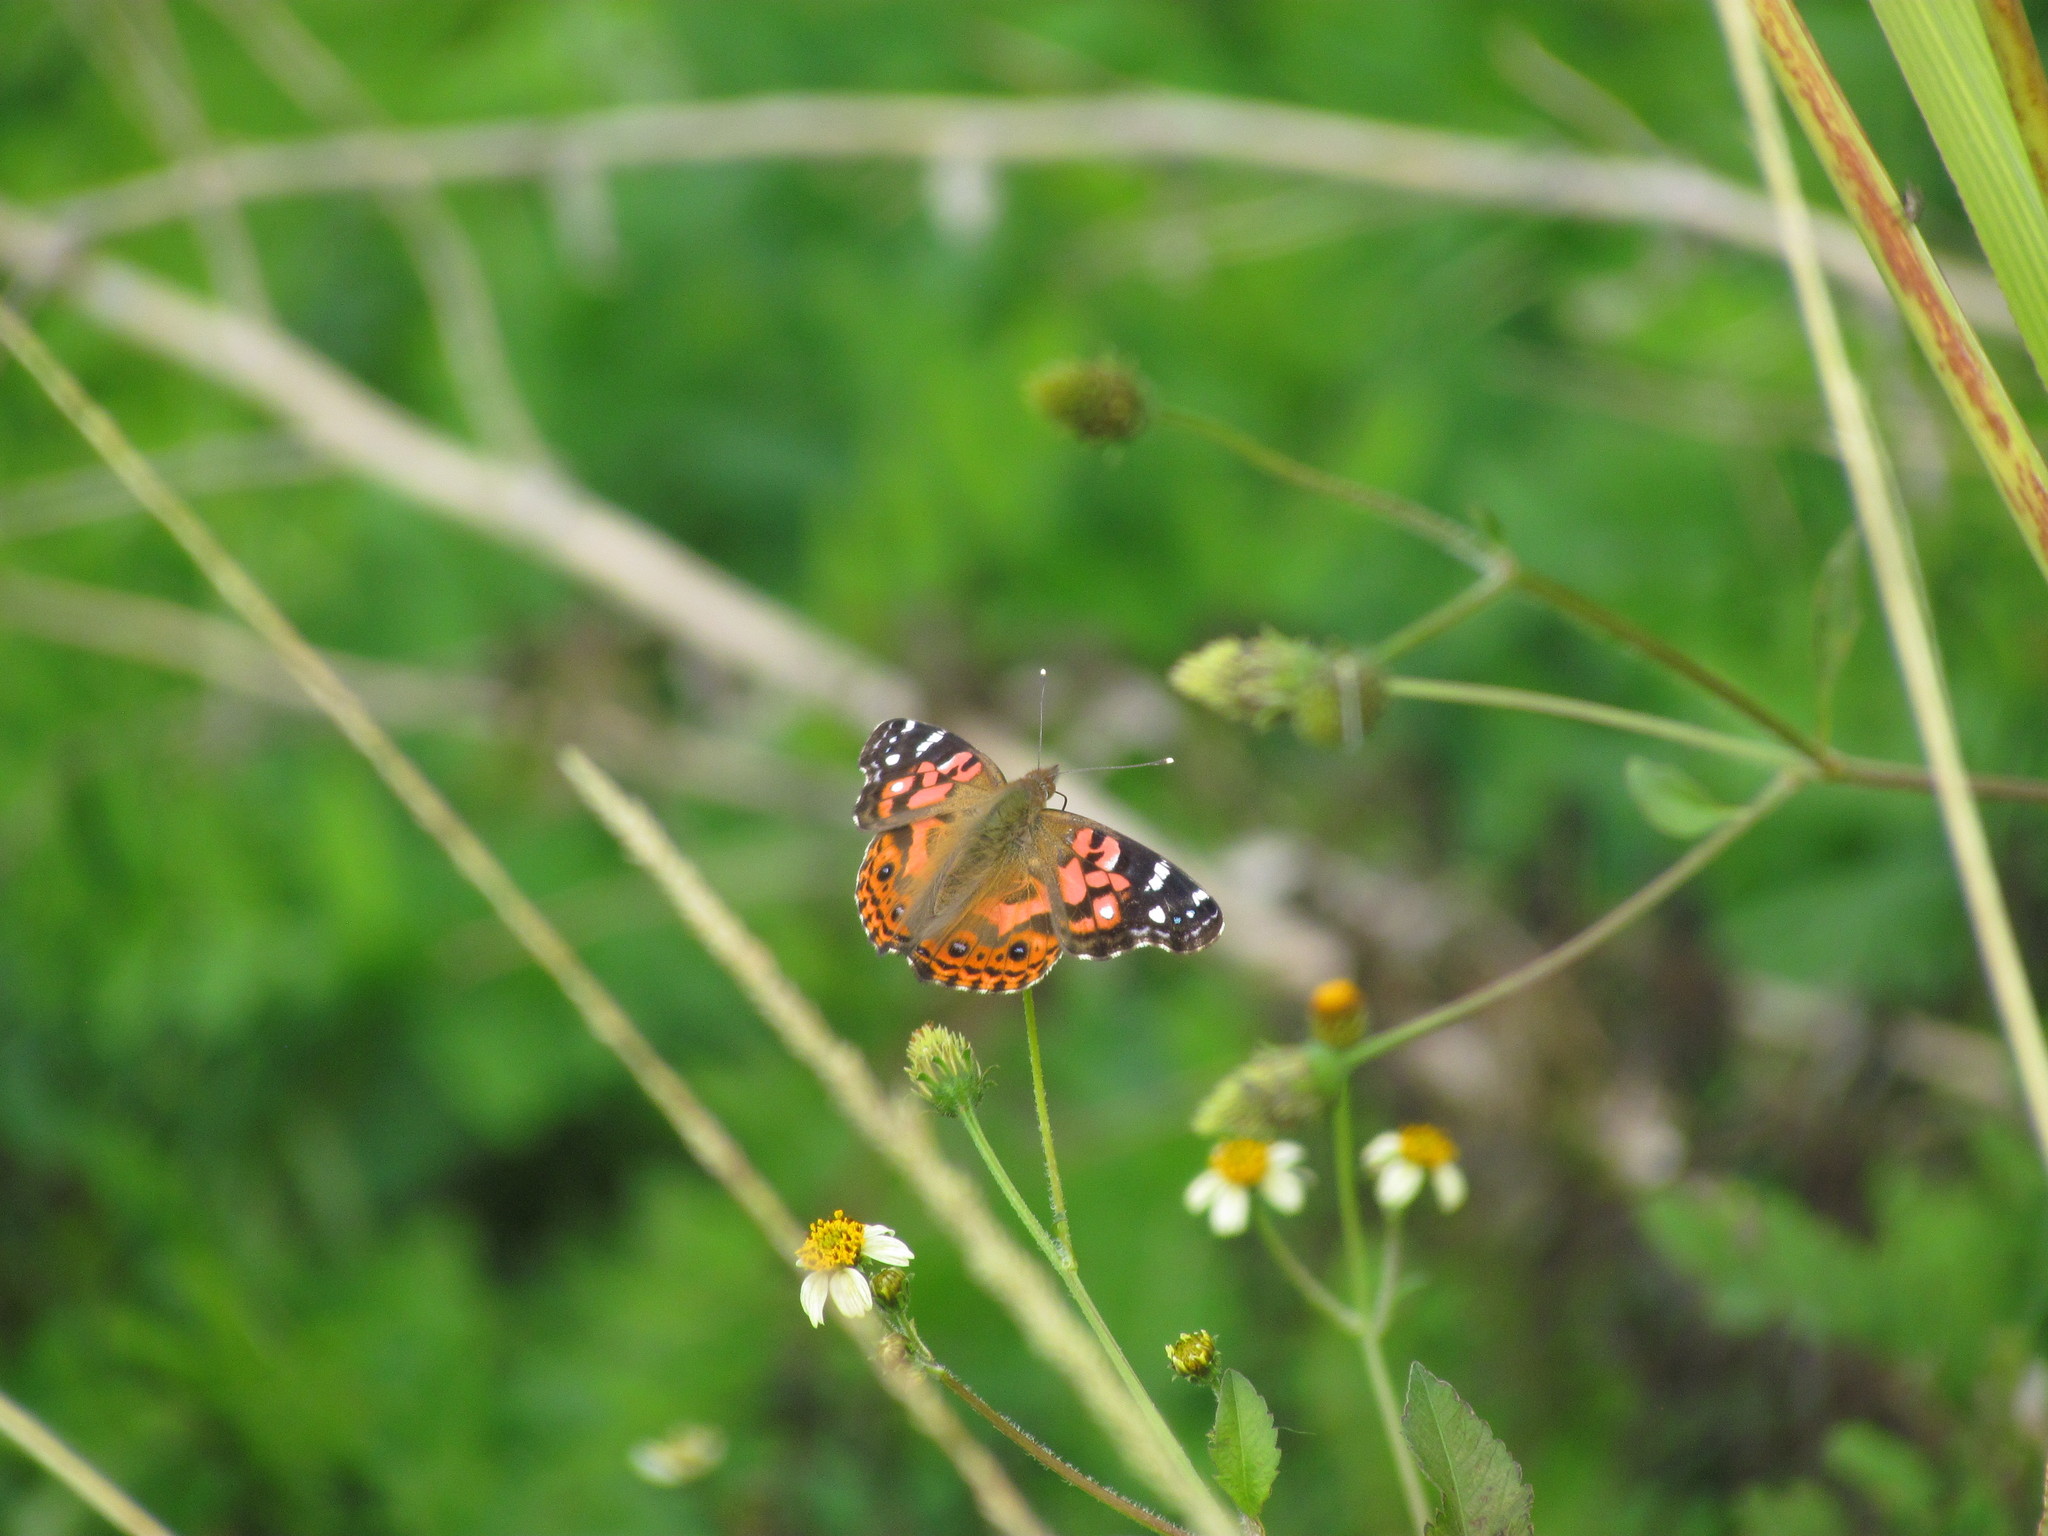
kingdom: Animalia
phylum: Arthropoda
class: Insecta
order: Lepidoptera
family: Nymphalidae
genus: Vanessa
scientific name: Vanessa braziliensis
